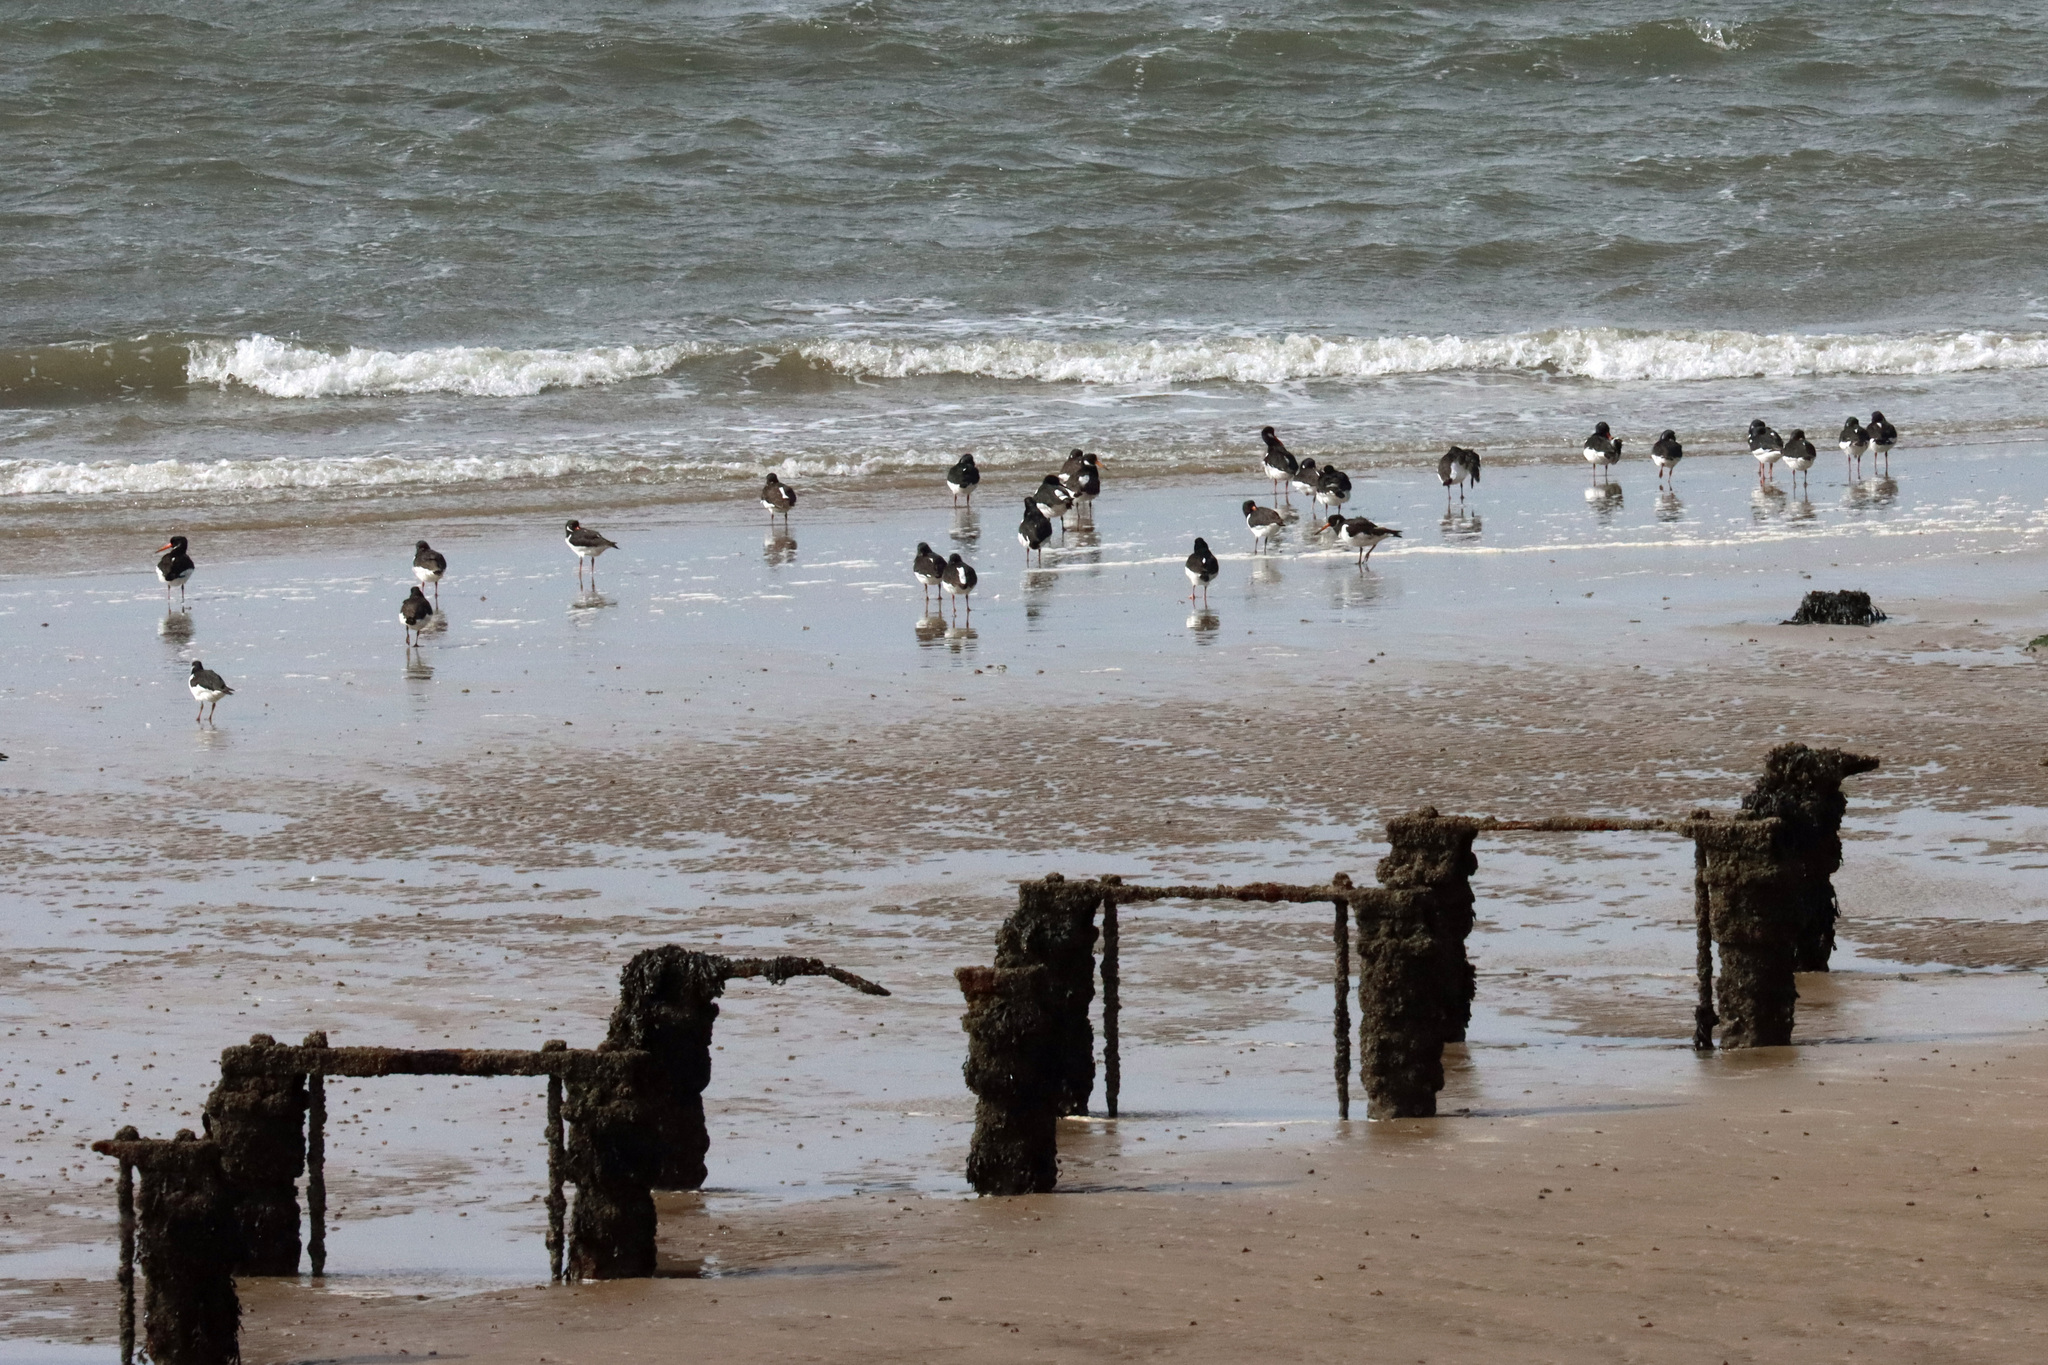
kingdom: Animalia
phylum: Chordata
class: Aves
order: Charadriiformes
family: Haematopodidae
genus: Haematopus
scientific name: Haematopus ostralegus
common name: Eurasian oystercatcher
